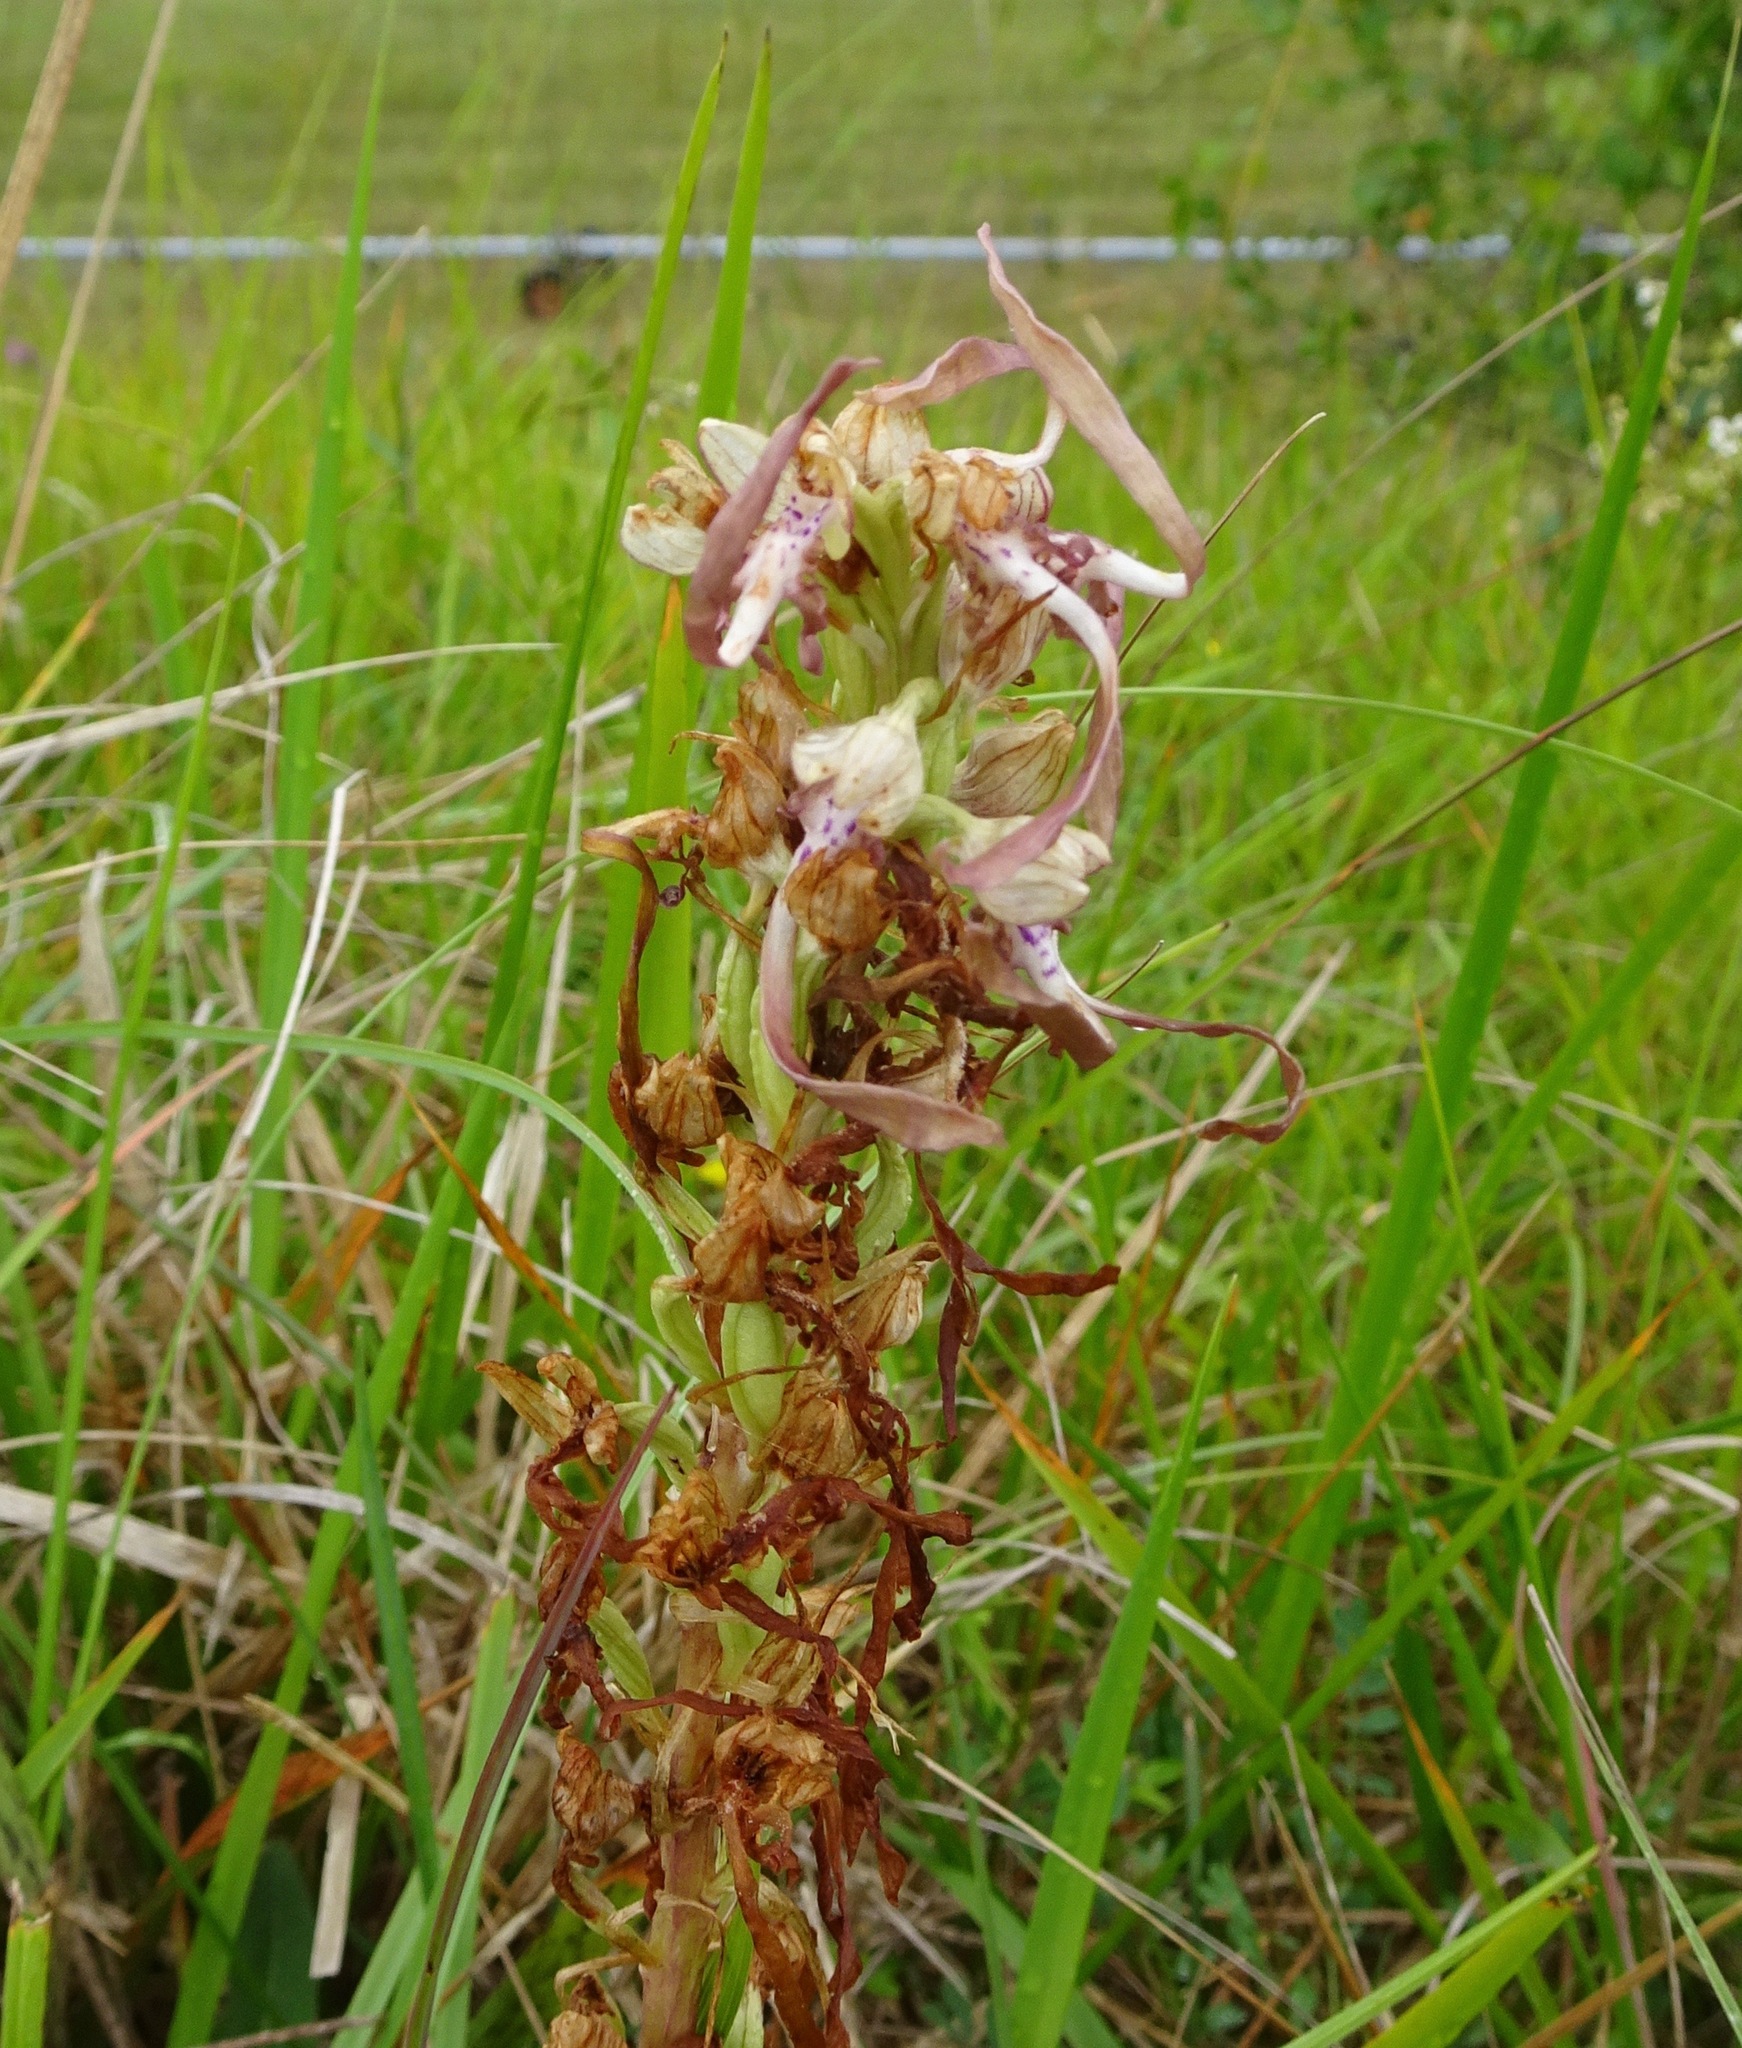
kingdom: Plantae
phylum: Tracheophyta
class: Liliopsida
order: Asparagales
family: Orchidaceae
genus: Himantoglossum
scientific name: Himantoglossum hircinum
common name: Lizard orchid
